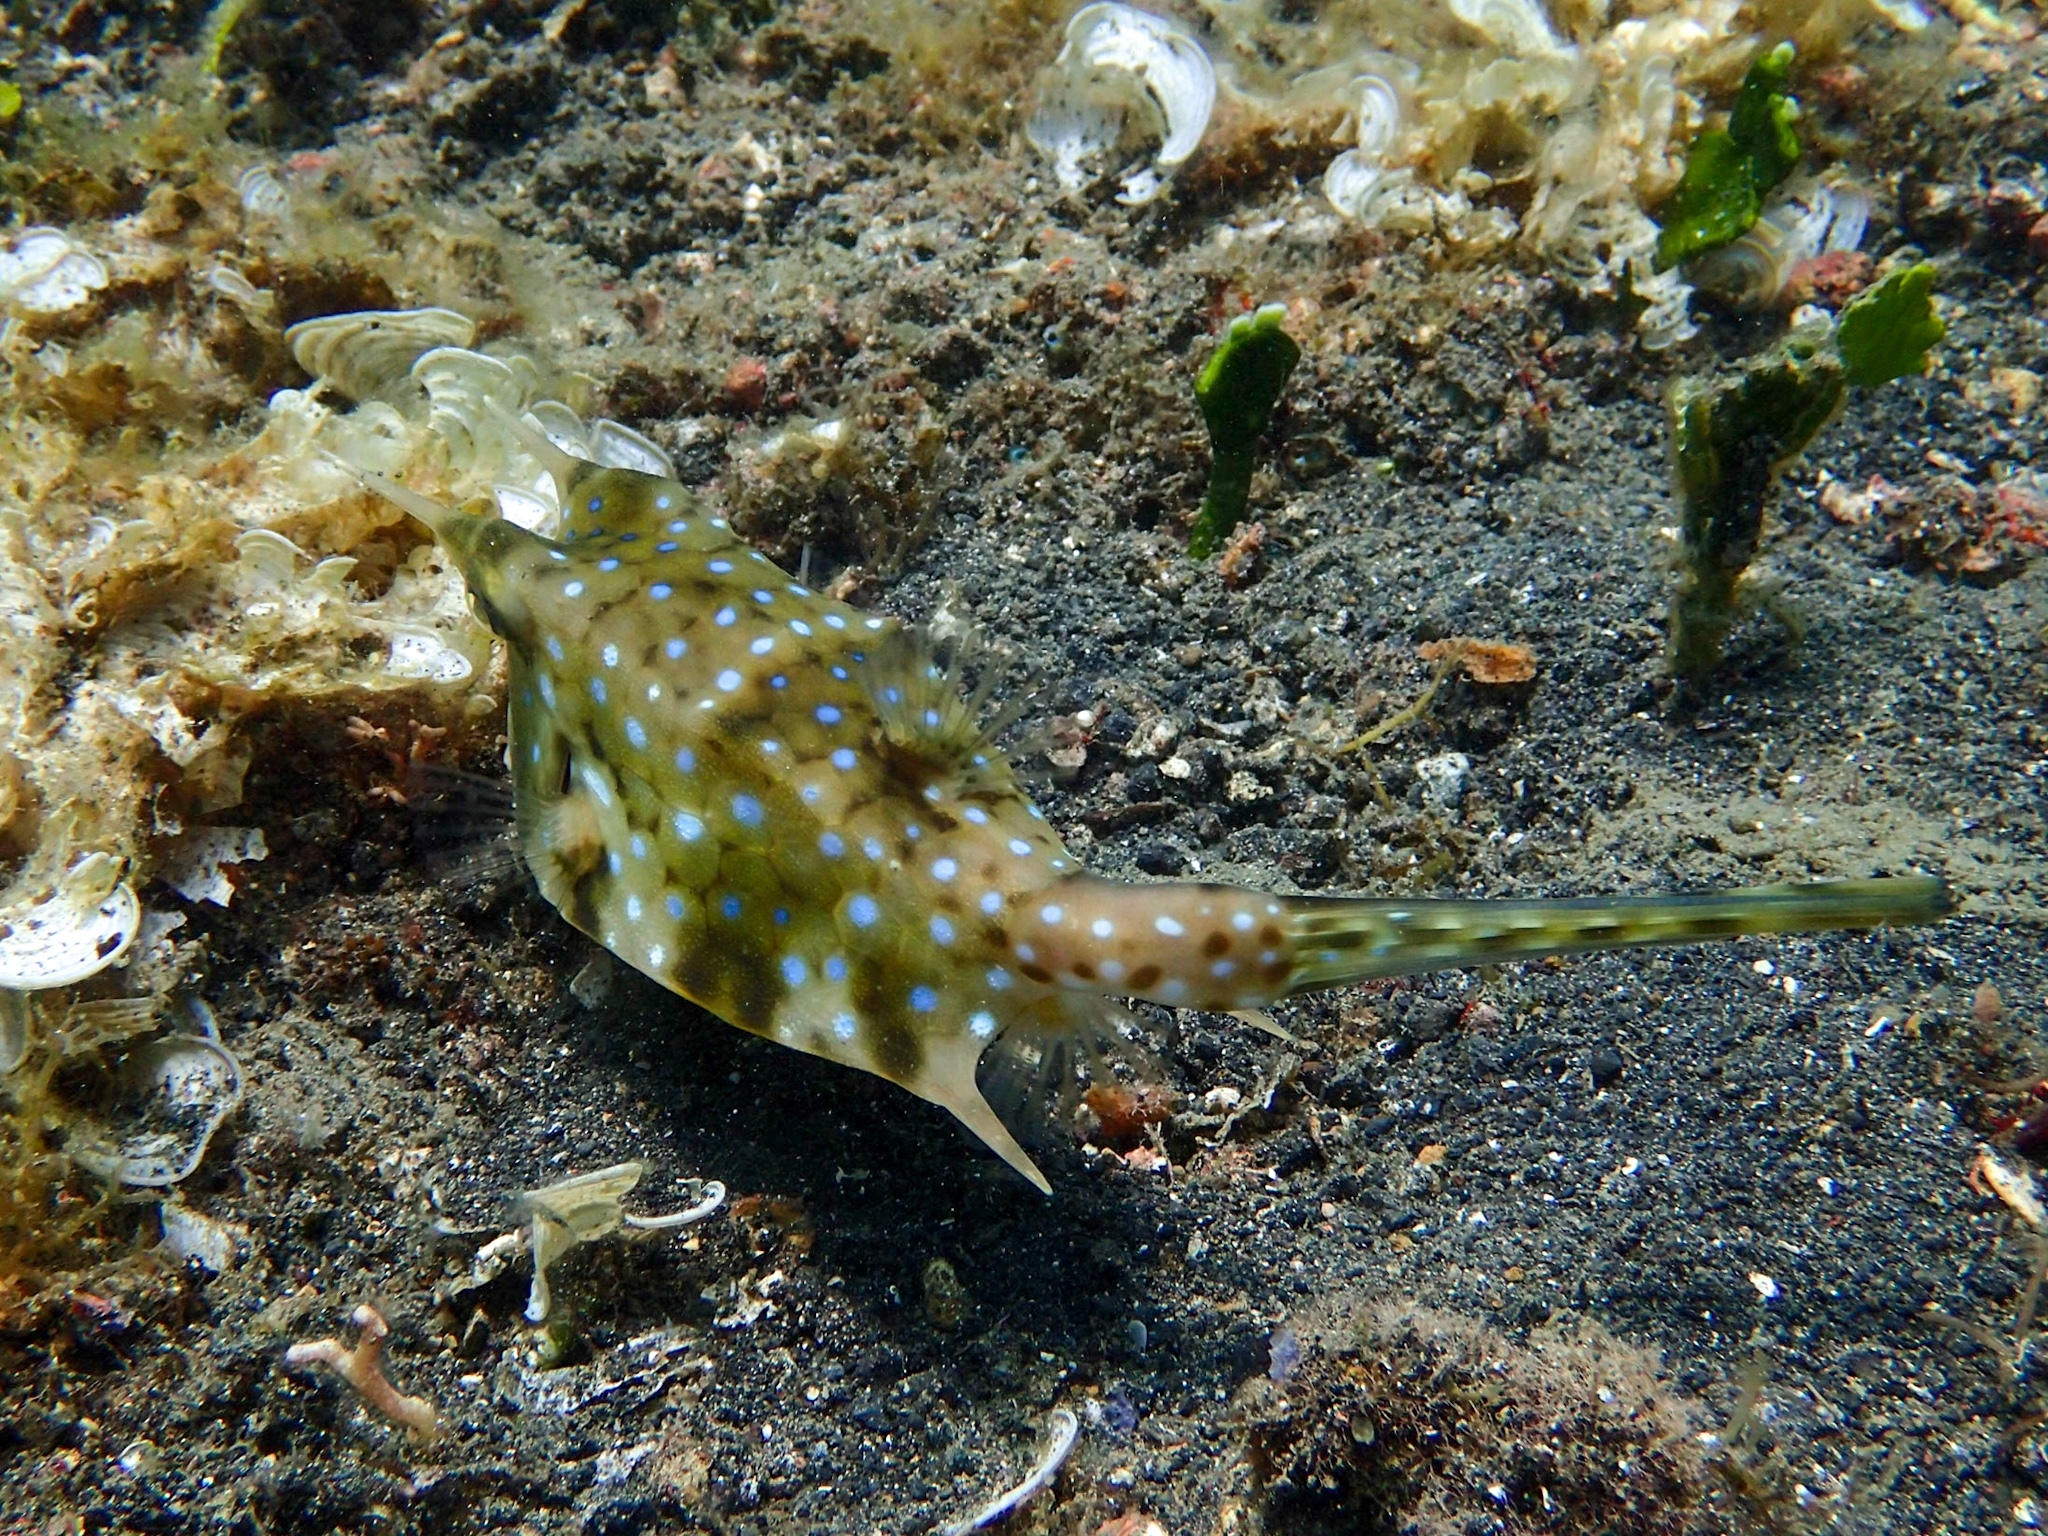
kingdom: Animalia
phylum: Chordata
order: Tetraodontiformes
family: Ostraciidae
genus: Lactoria
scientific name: Lactoria cornuta
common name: Longhorn cowfish
